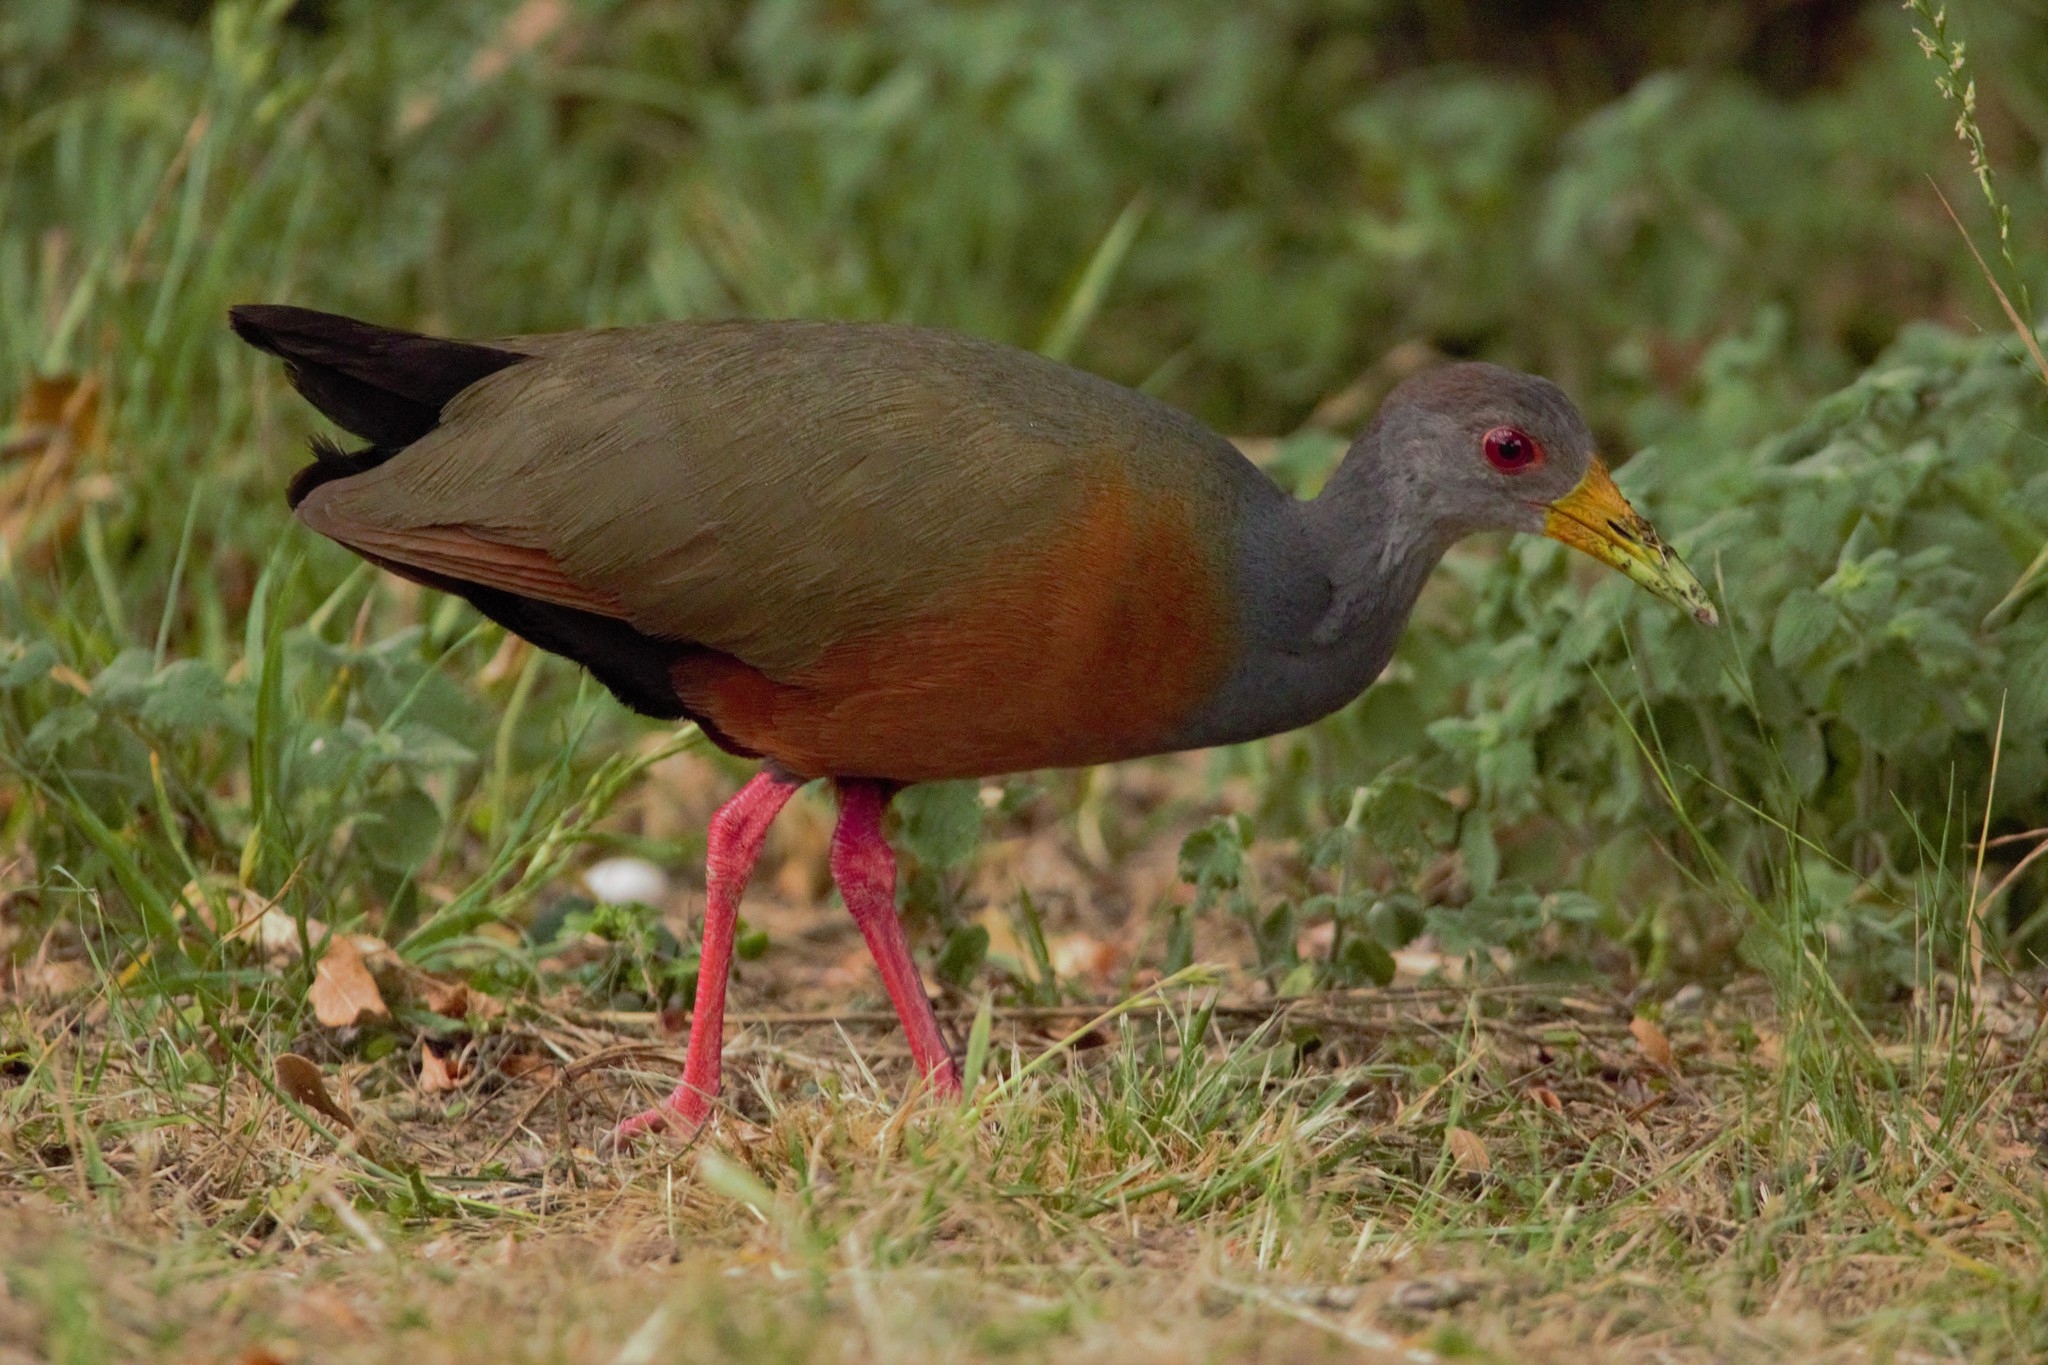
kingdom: Animalia
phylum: Chordata
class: Aves
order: Gruiformes
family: Rallidae
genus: Aramides
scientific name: Aramides cajanea
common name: Gray-necked wood-rail
